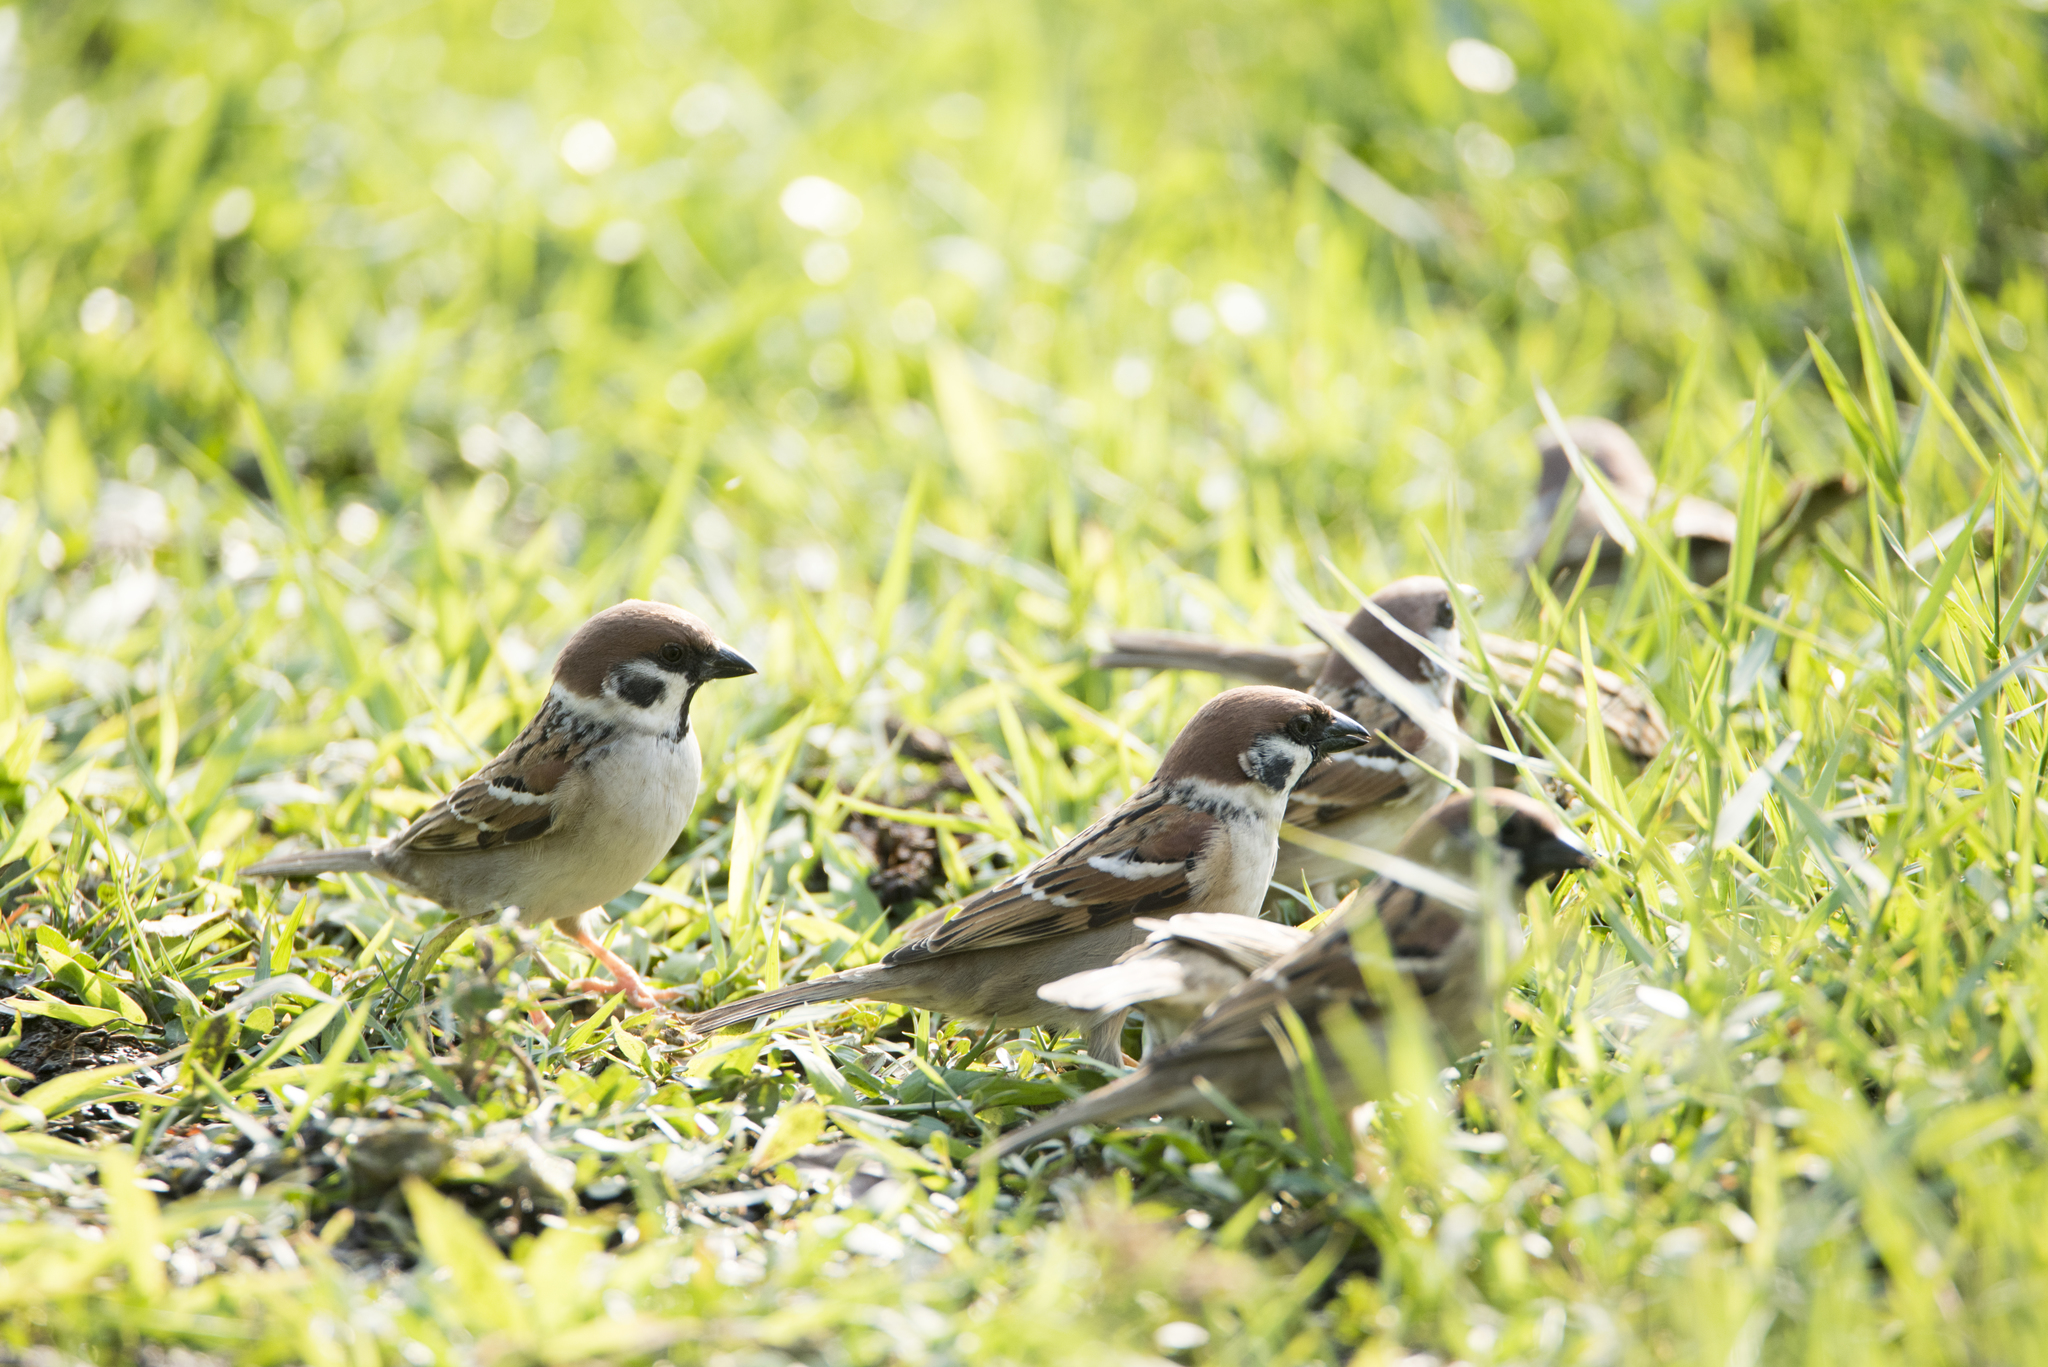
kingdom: Animalia
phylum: Chordata
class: Aves
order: Passeriformes
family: Passeridae
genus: Passer
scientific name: Passer montanus
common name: Eurasian tree sparrow
